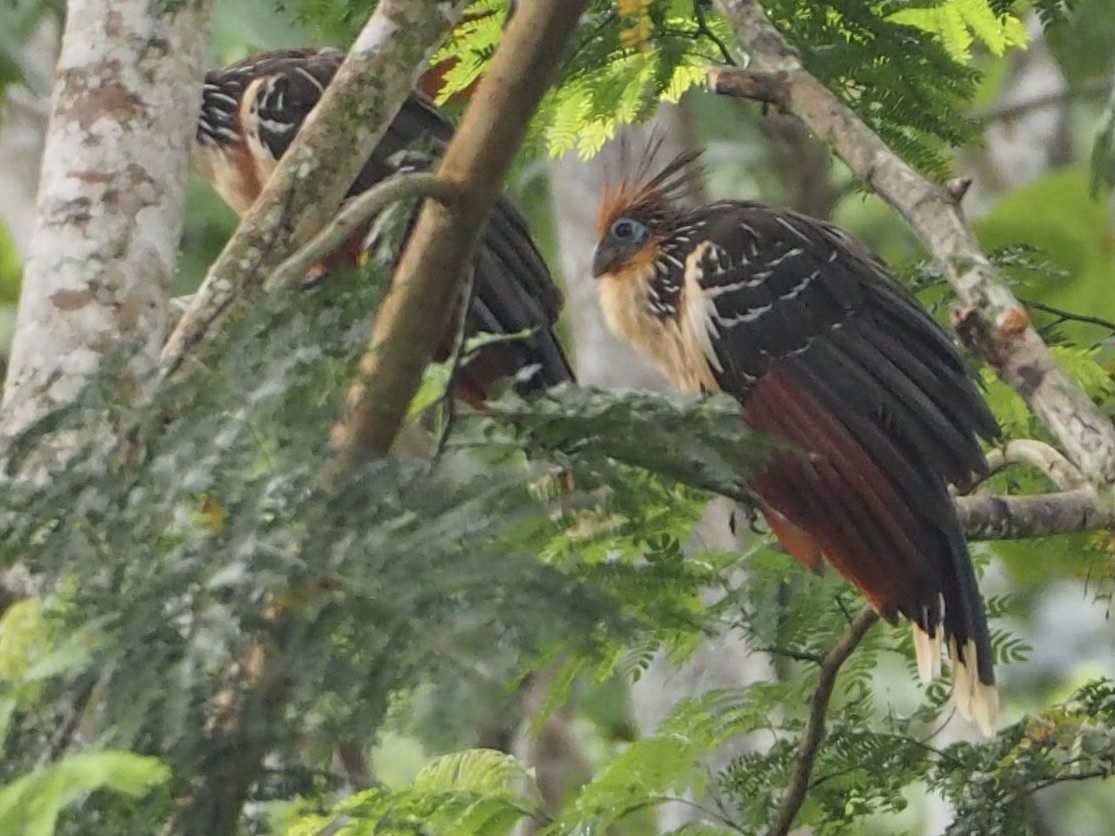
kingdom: Animalia
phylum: Chordata
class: Aves
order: Opisthocomiformes
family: Opisthocomidae
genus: Opisthocomus
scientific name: Opisthocomus hoazin
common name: Hoatzin
